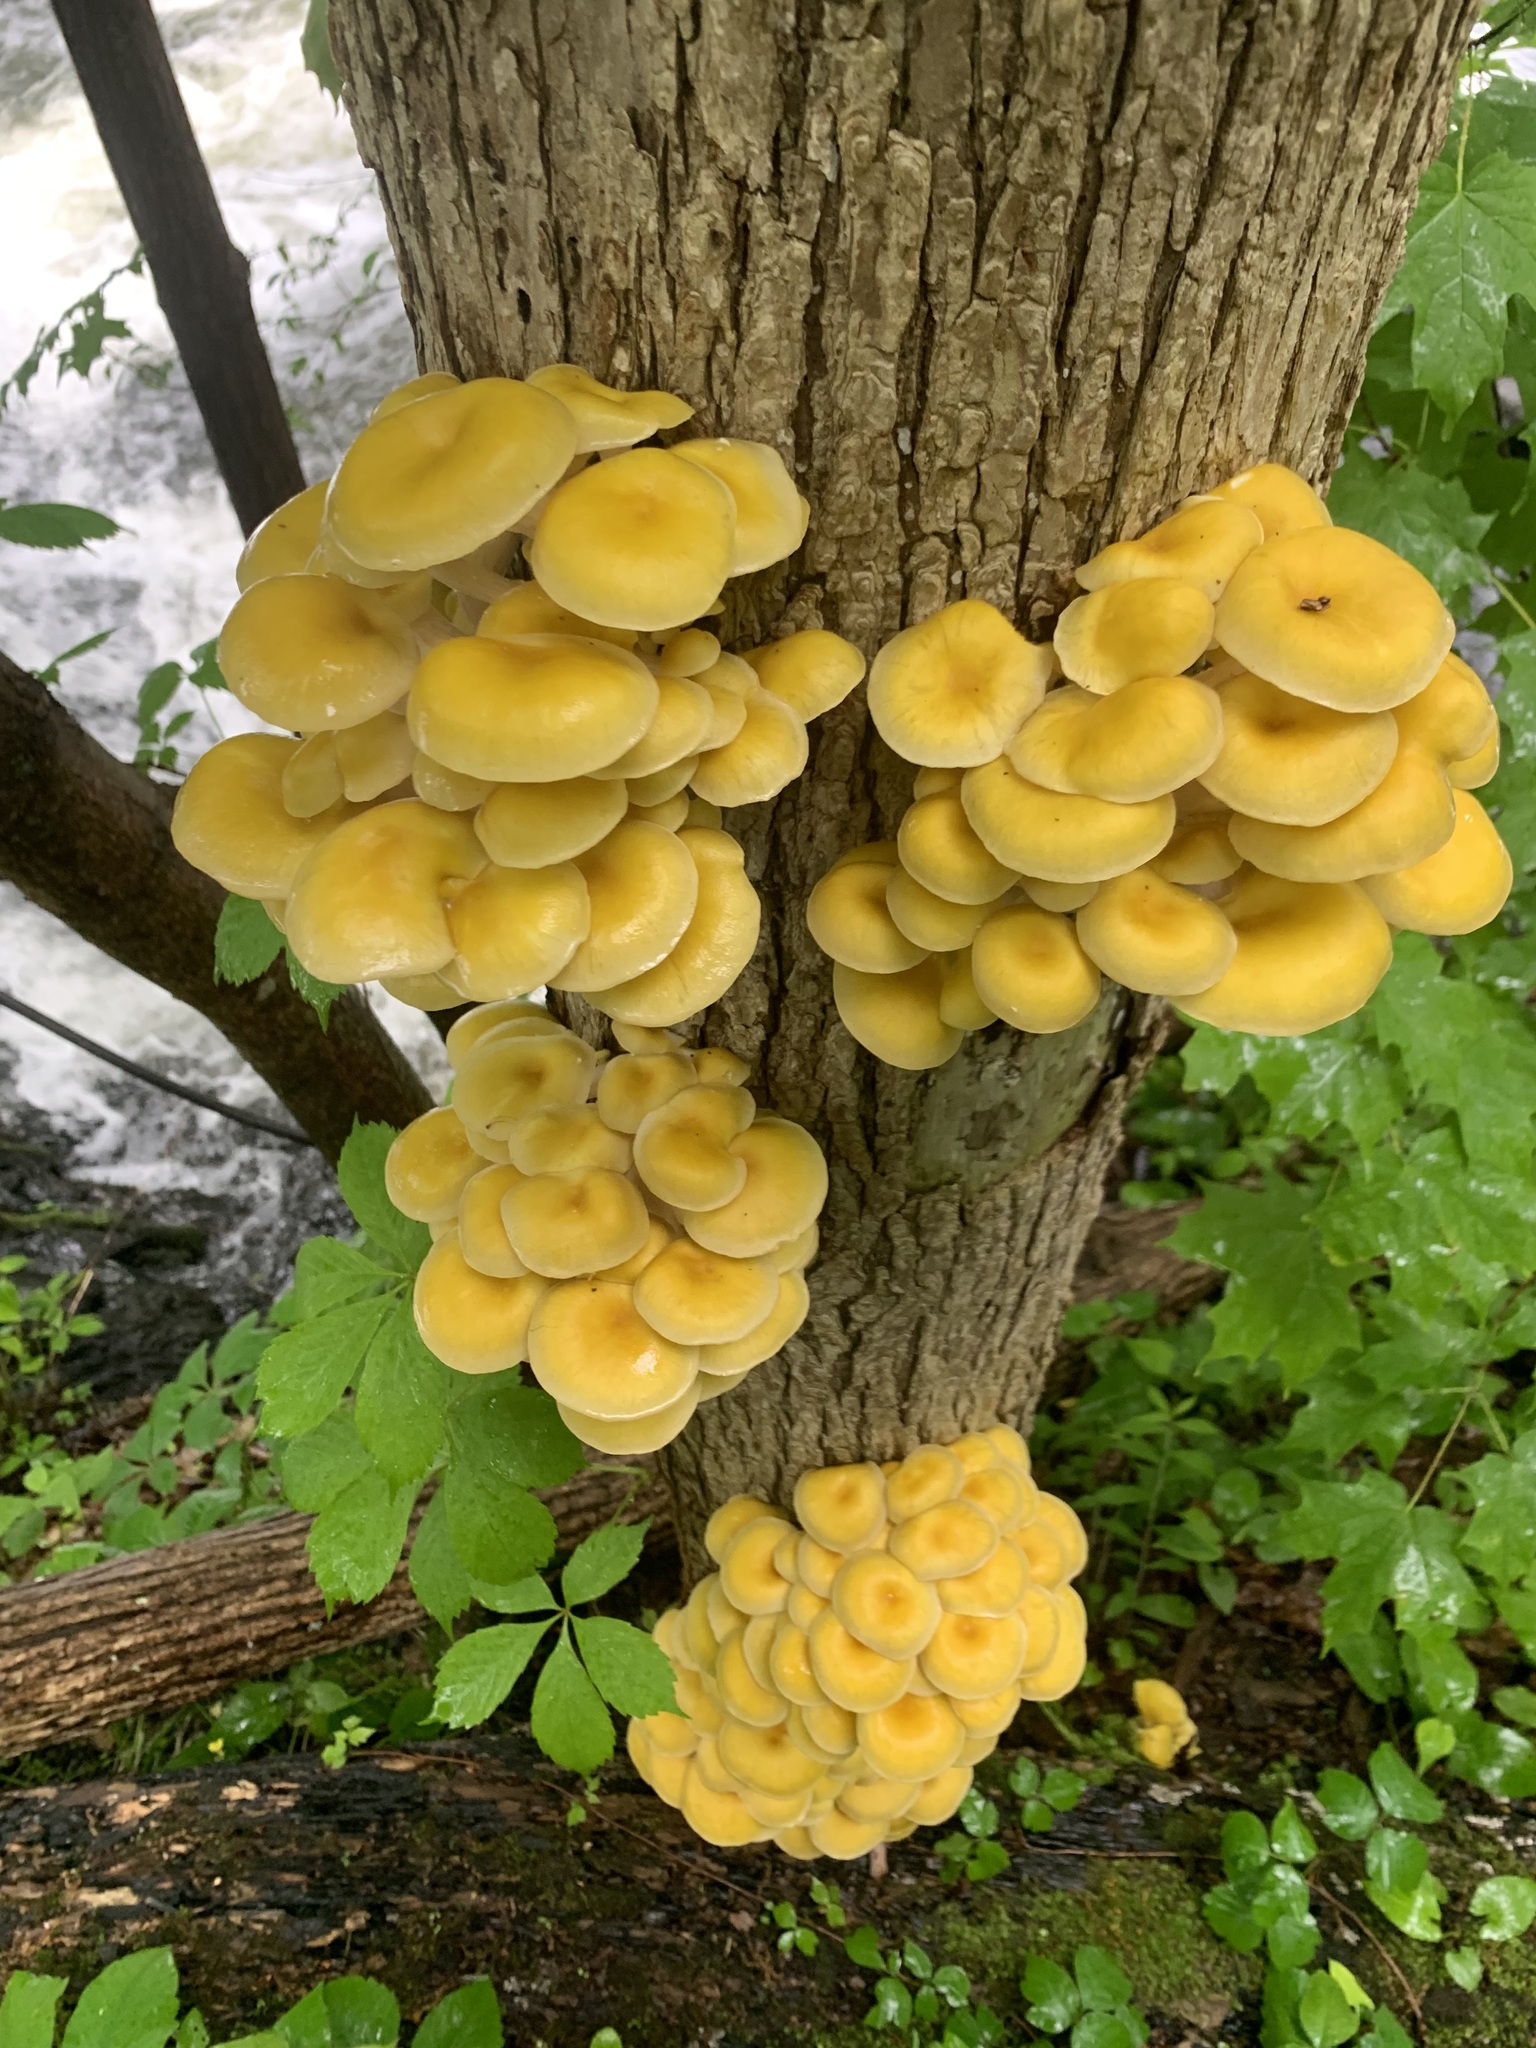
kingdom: Fungi
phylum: Basidiomycota
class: Agaricomycetes
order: Agaricales
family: Pleurotaceae
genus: Pleurotus
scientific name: Pleurotus citrinopileatus
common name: Golden oyster mushroom
